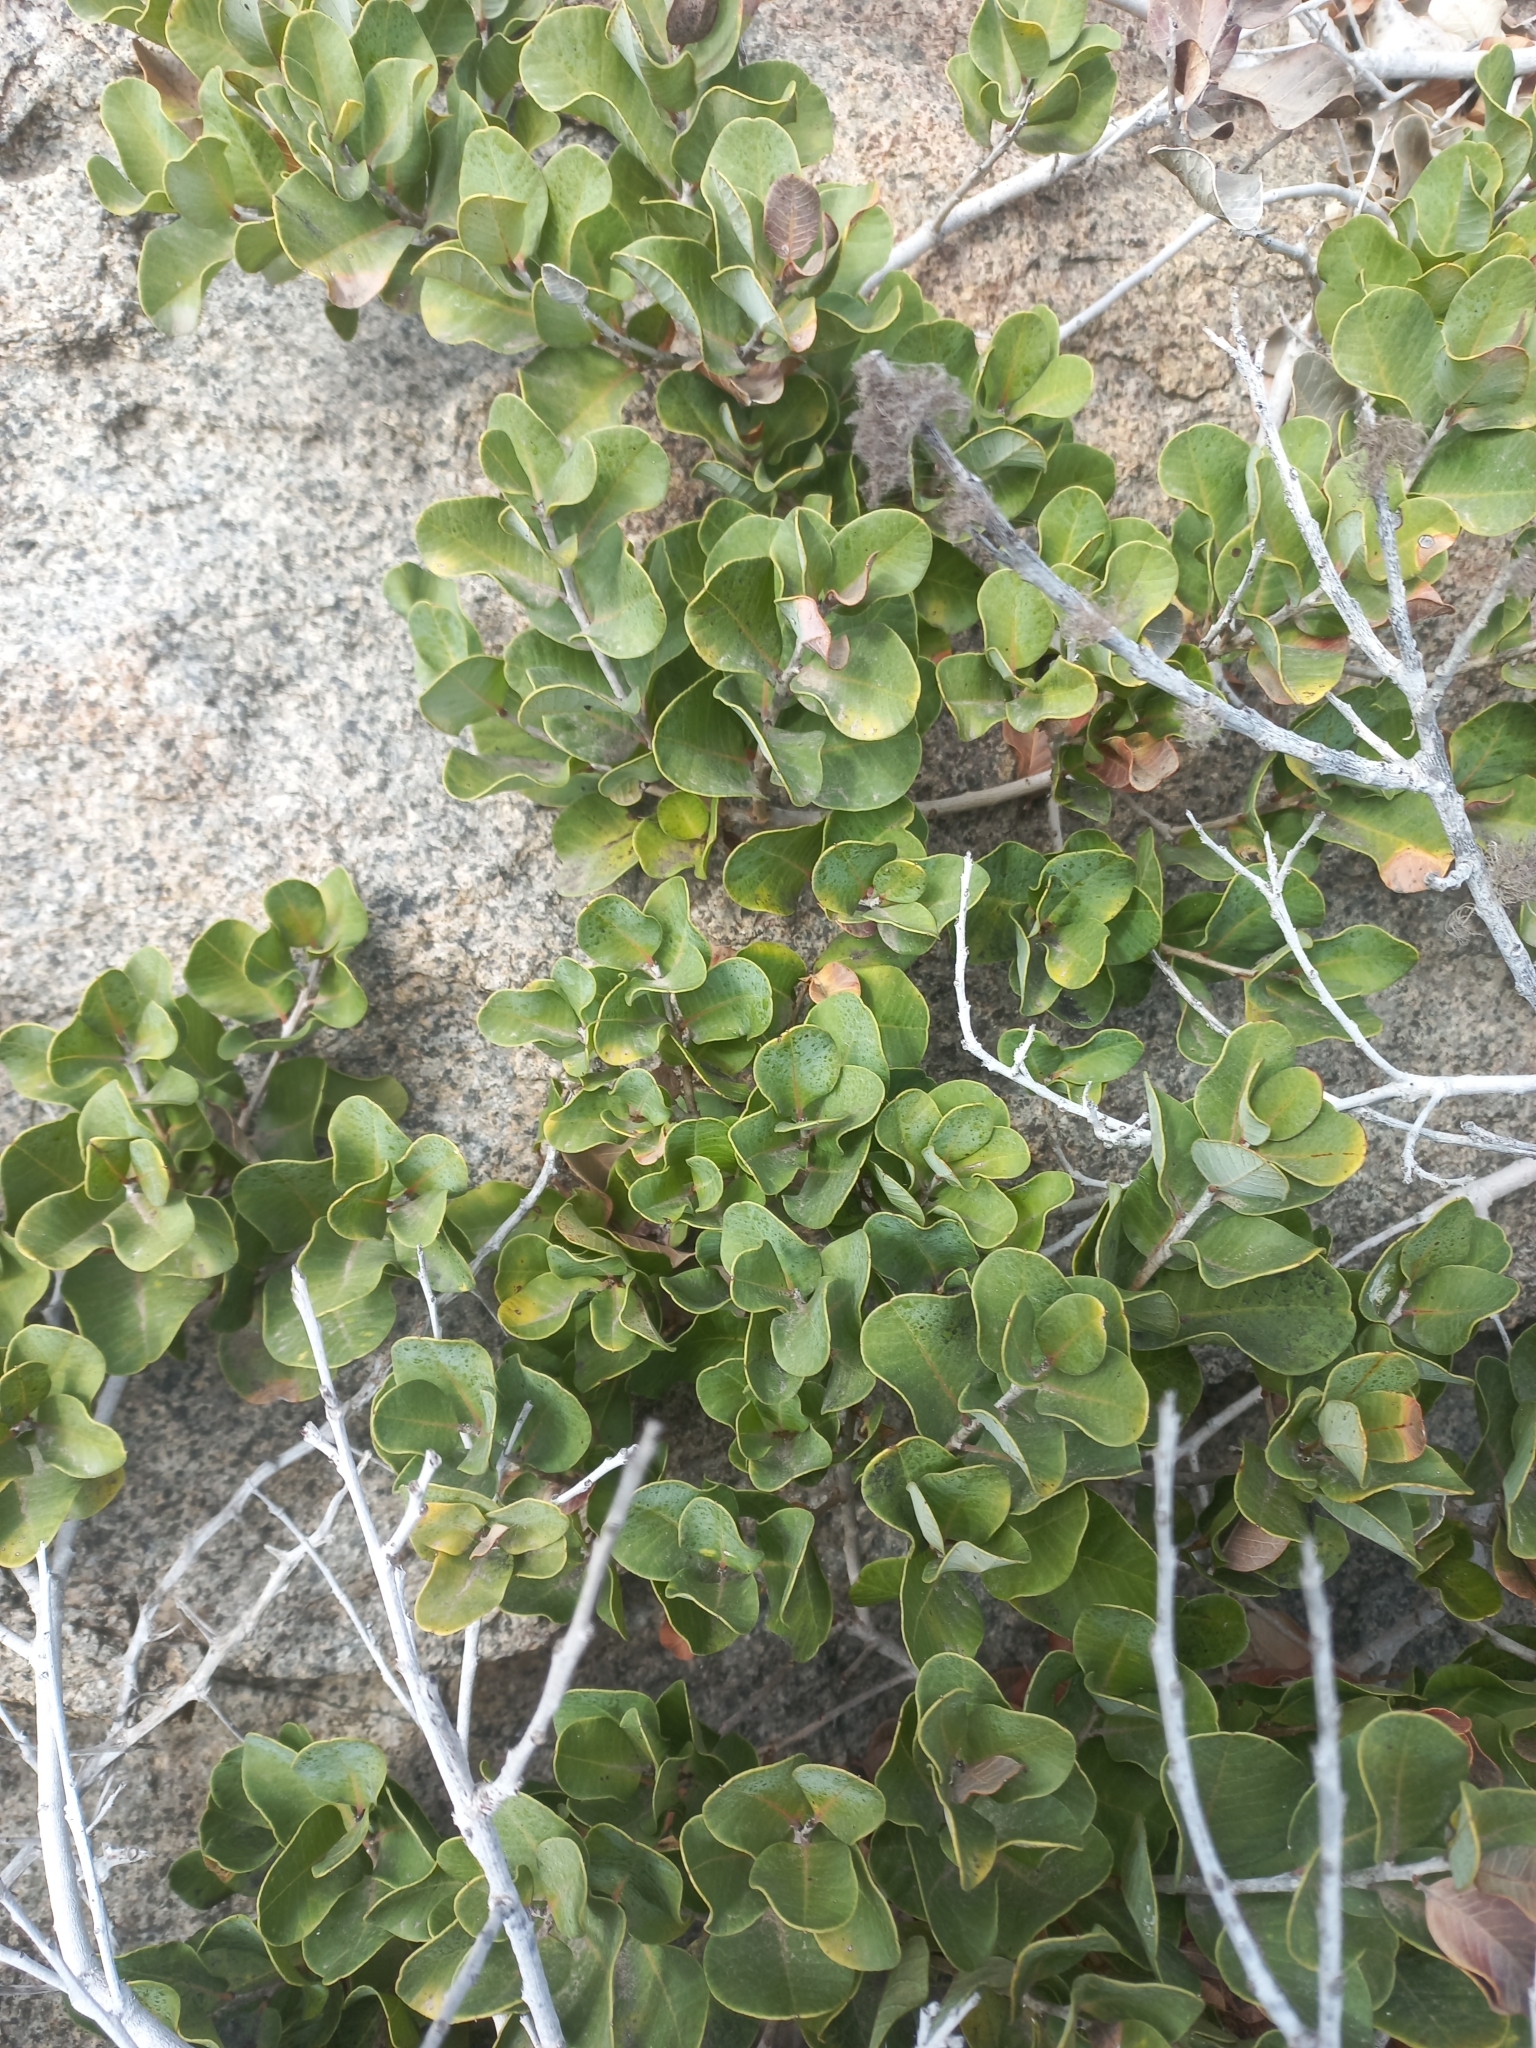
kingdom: Plantae
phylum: Tracheophyta
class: Magnoliopsida
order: Sapindales
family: Anacardiaceae
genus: Lithraea
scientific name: Lithraea caustica
